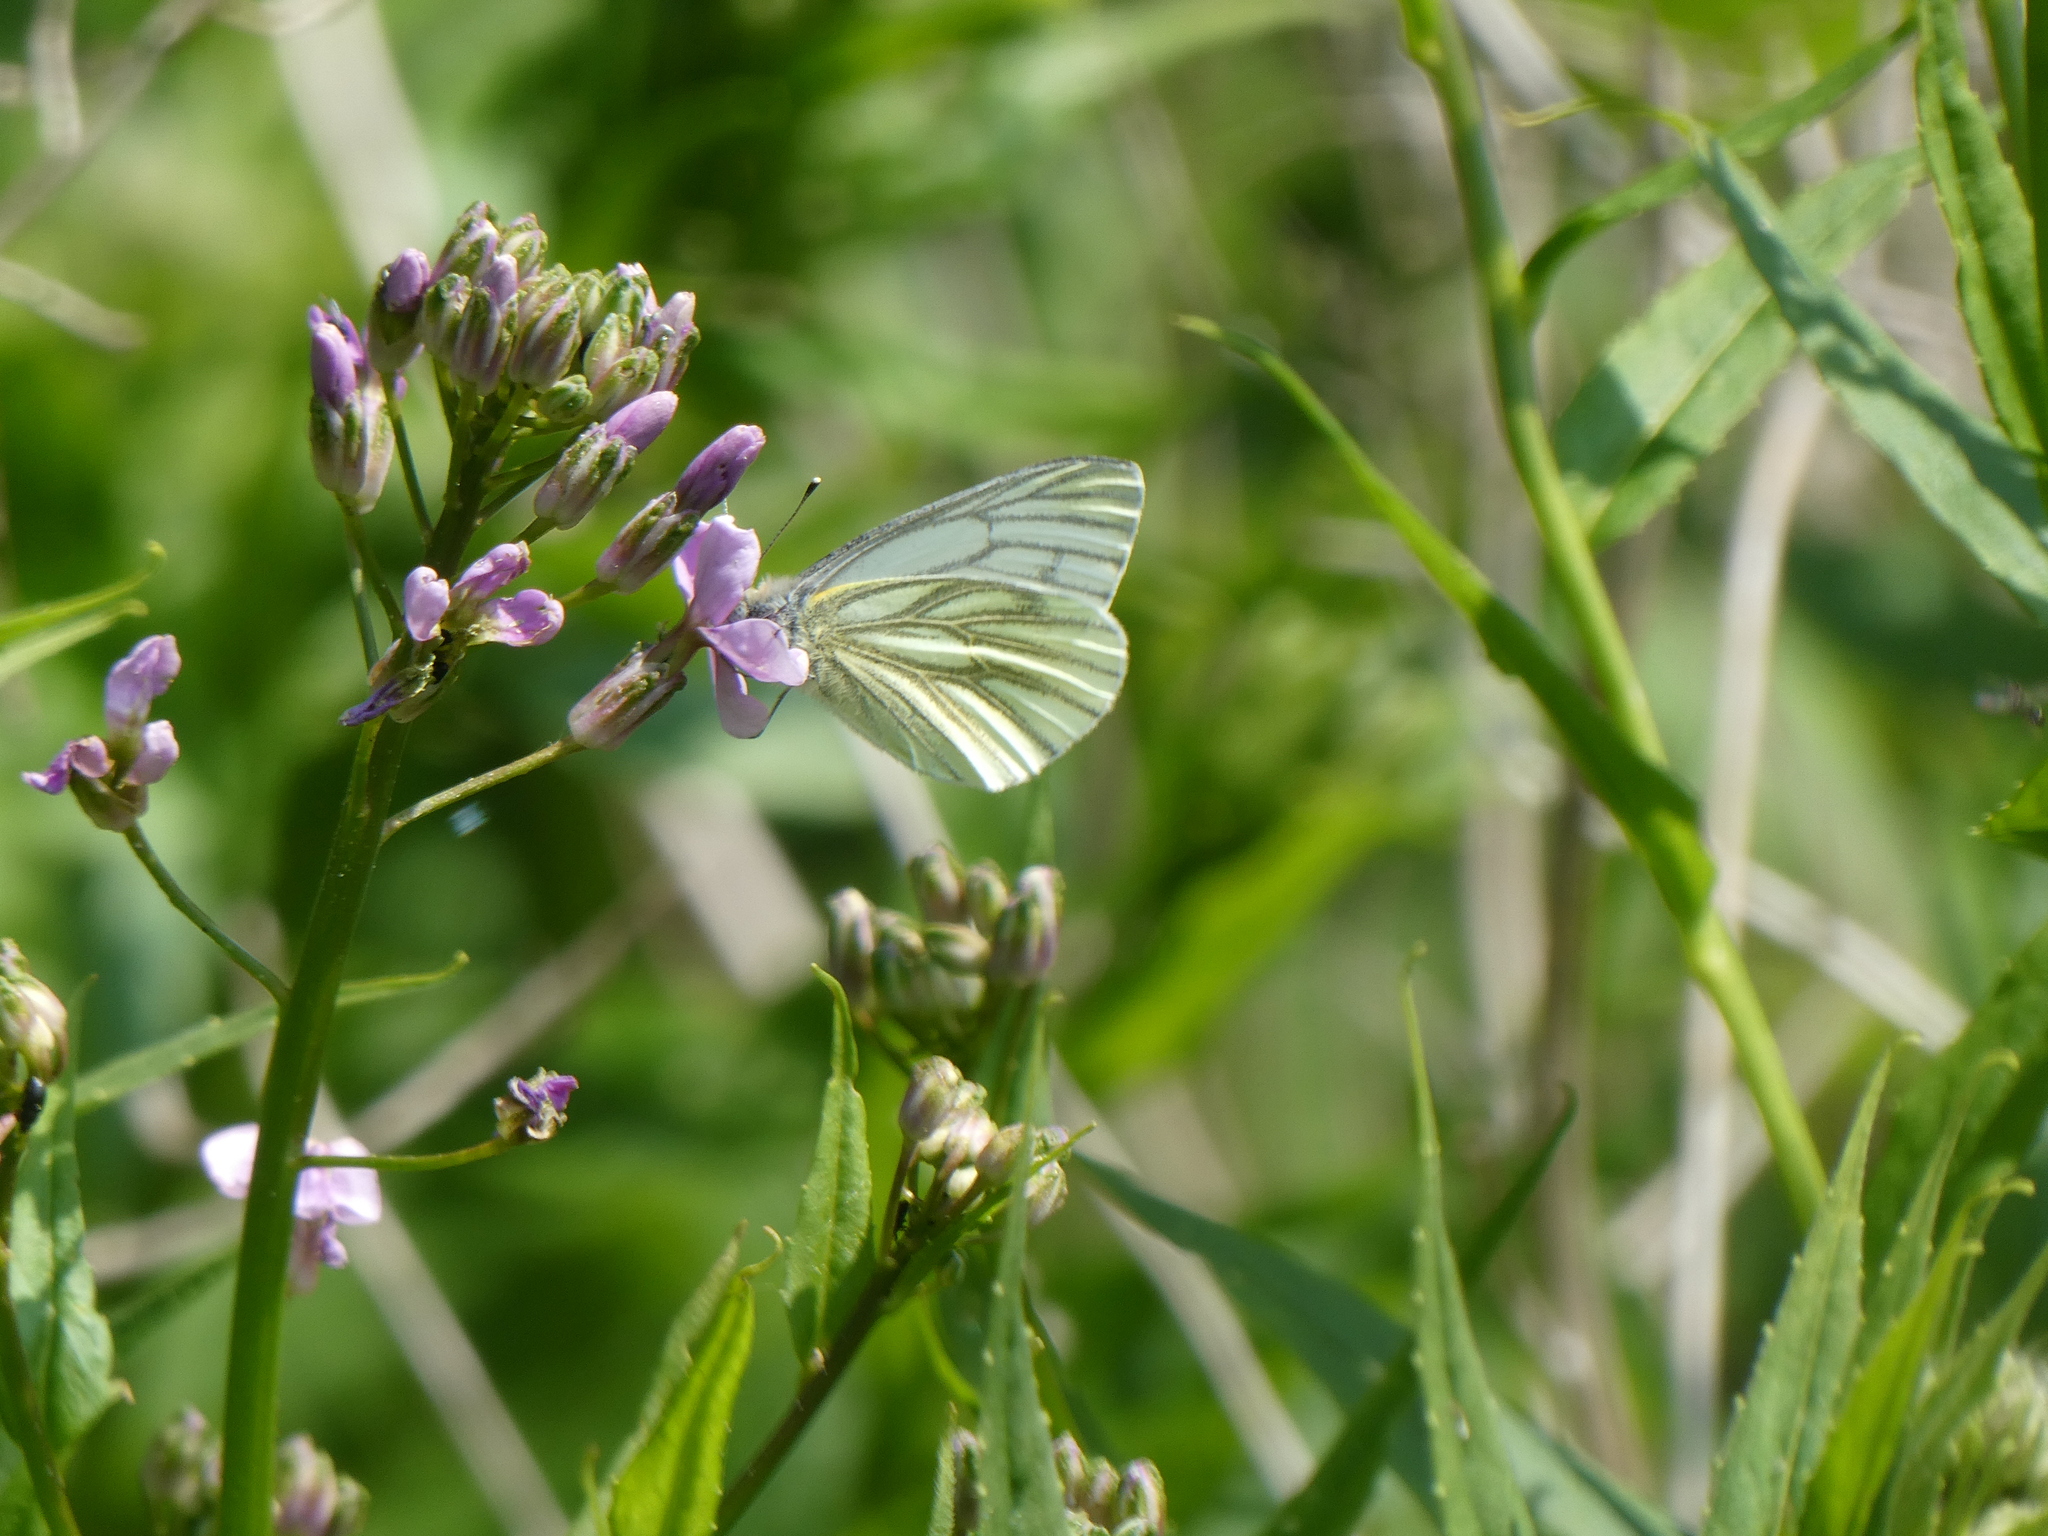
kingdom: Animalia
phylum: Arthropoda
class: Insecta
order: Lepidoptera
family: Pieridae
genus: Pieris
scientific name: Pieris napi
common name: Green-veined white
